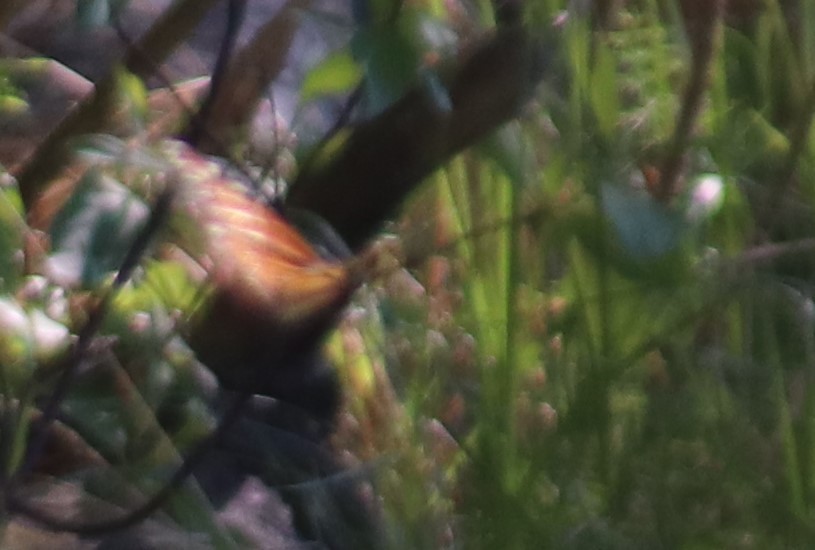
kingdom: Animalia
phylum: Arthropoda
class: Insecta
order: Lepidoptera
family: Nymphalidae
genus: Danaus
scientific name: Danaus plexippus
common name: Monarch
